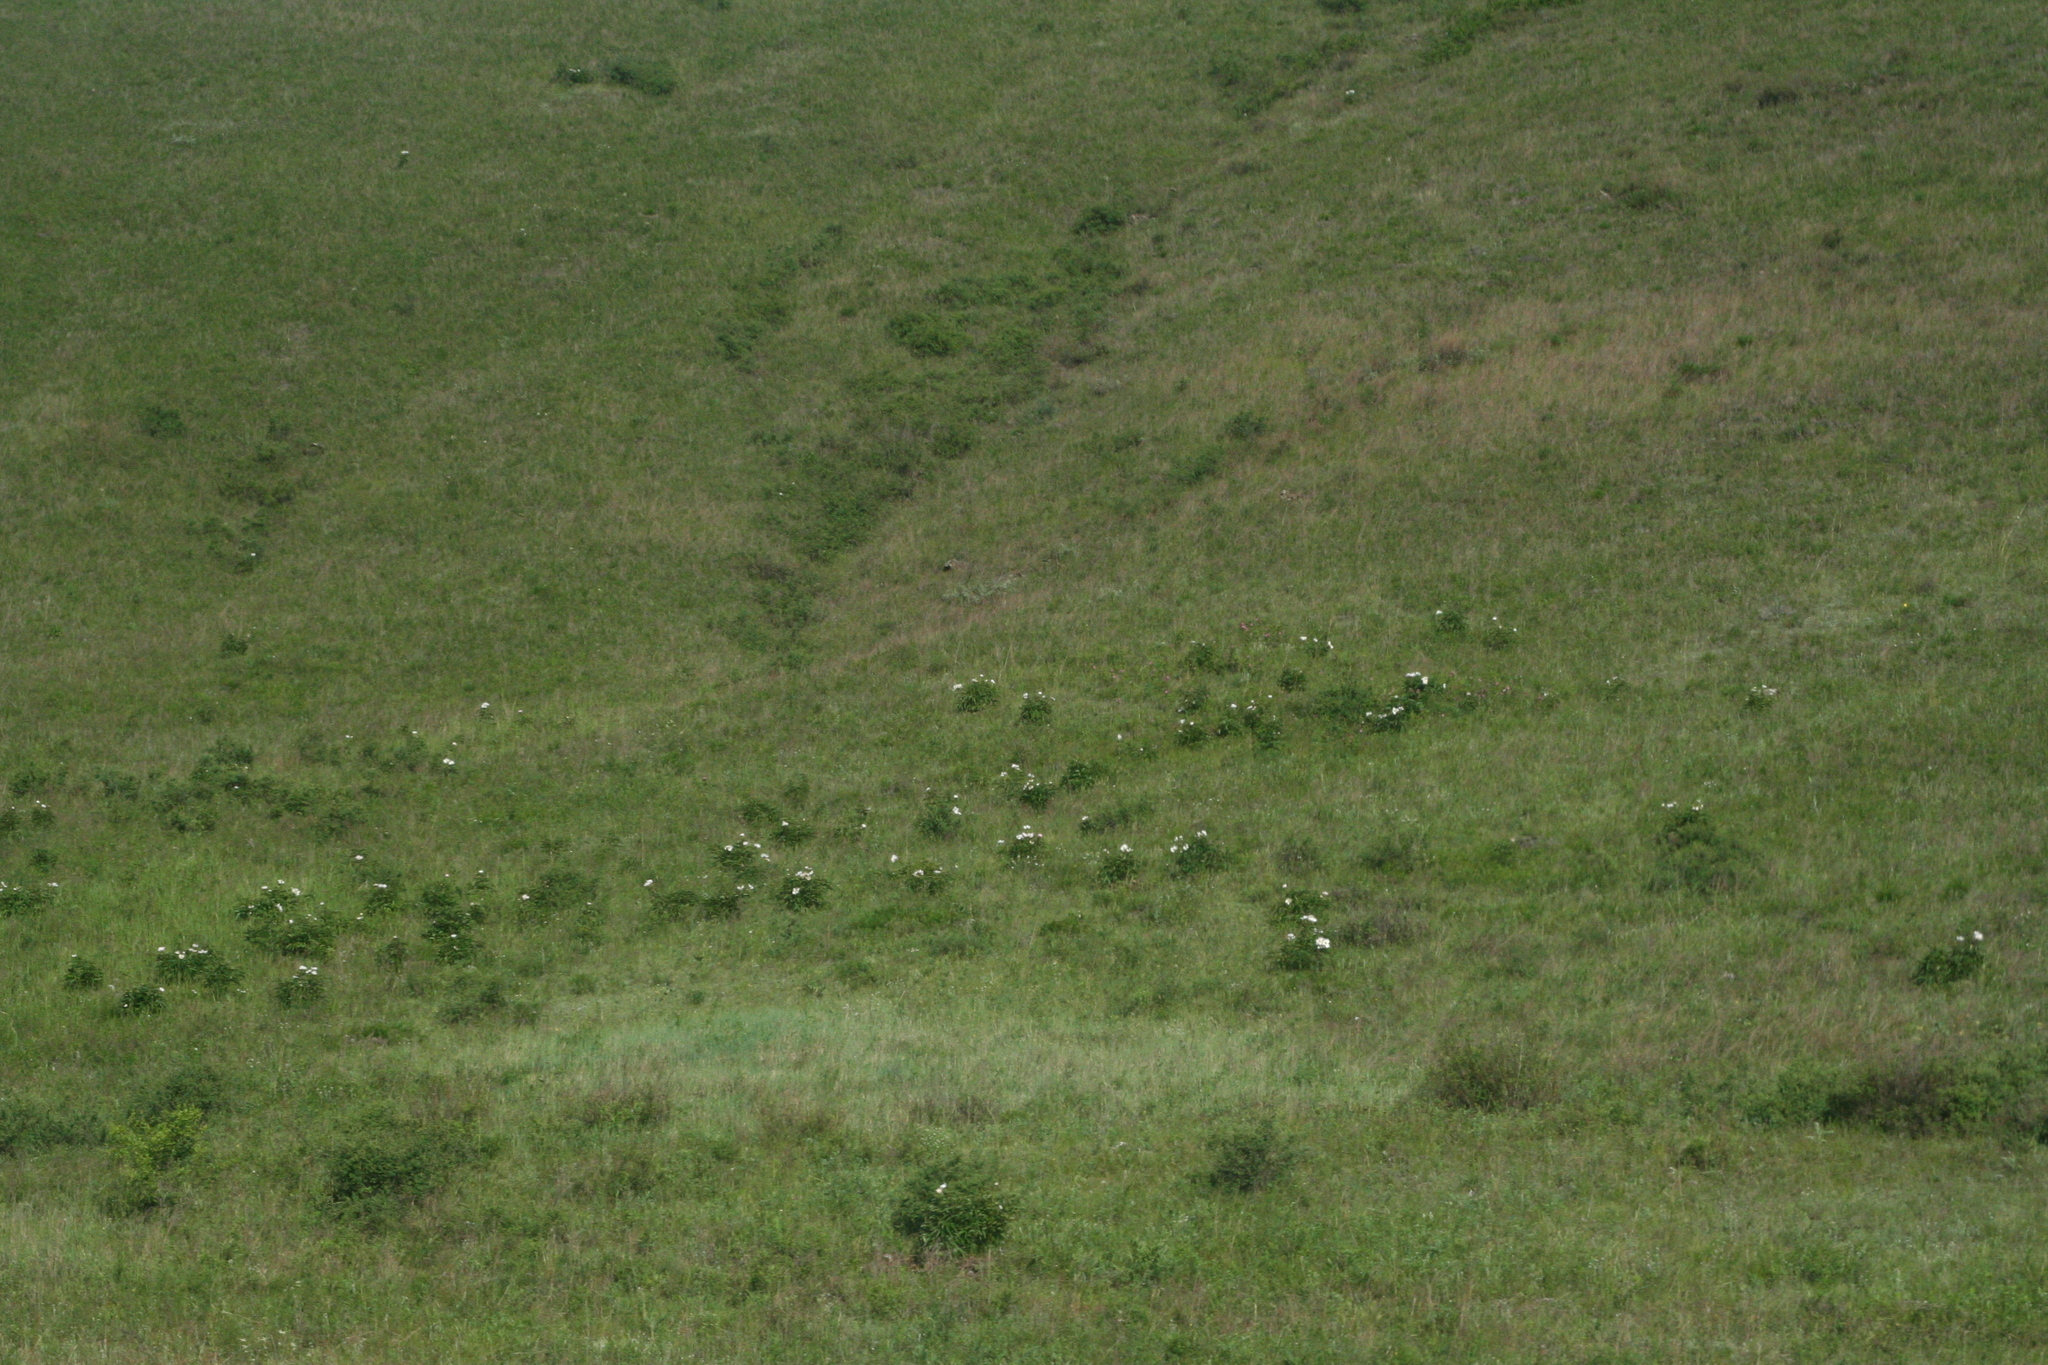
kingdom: Plantae
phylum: Tracheophyta
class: Magnoliopsida
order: Saxifragales
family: Paeoniaceae
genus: Paeonia
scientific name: Paeonia lactiflora
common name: Chinese peony
